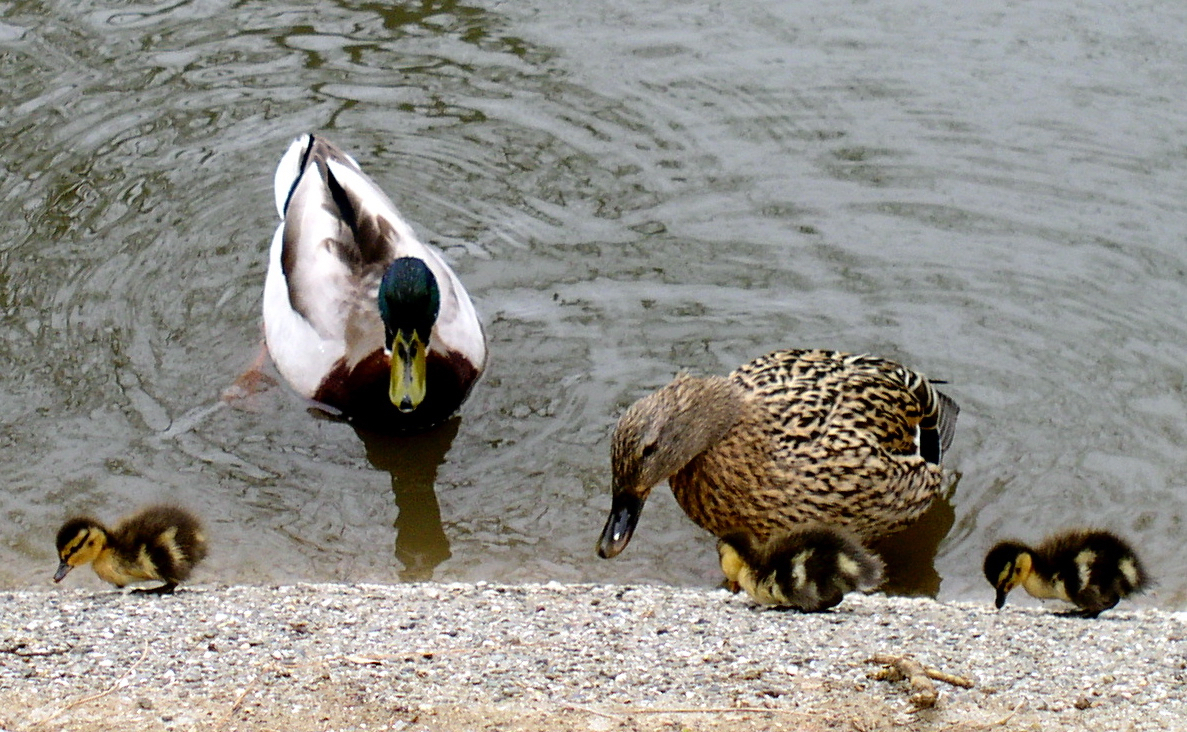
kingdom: Animalia
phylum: Chordata
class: Aves
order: Anseriformes
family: Anatidae
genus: Anas
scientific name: Anas platyrhynchos
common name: Mallard
